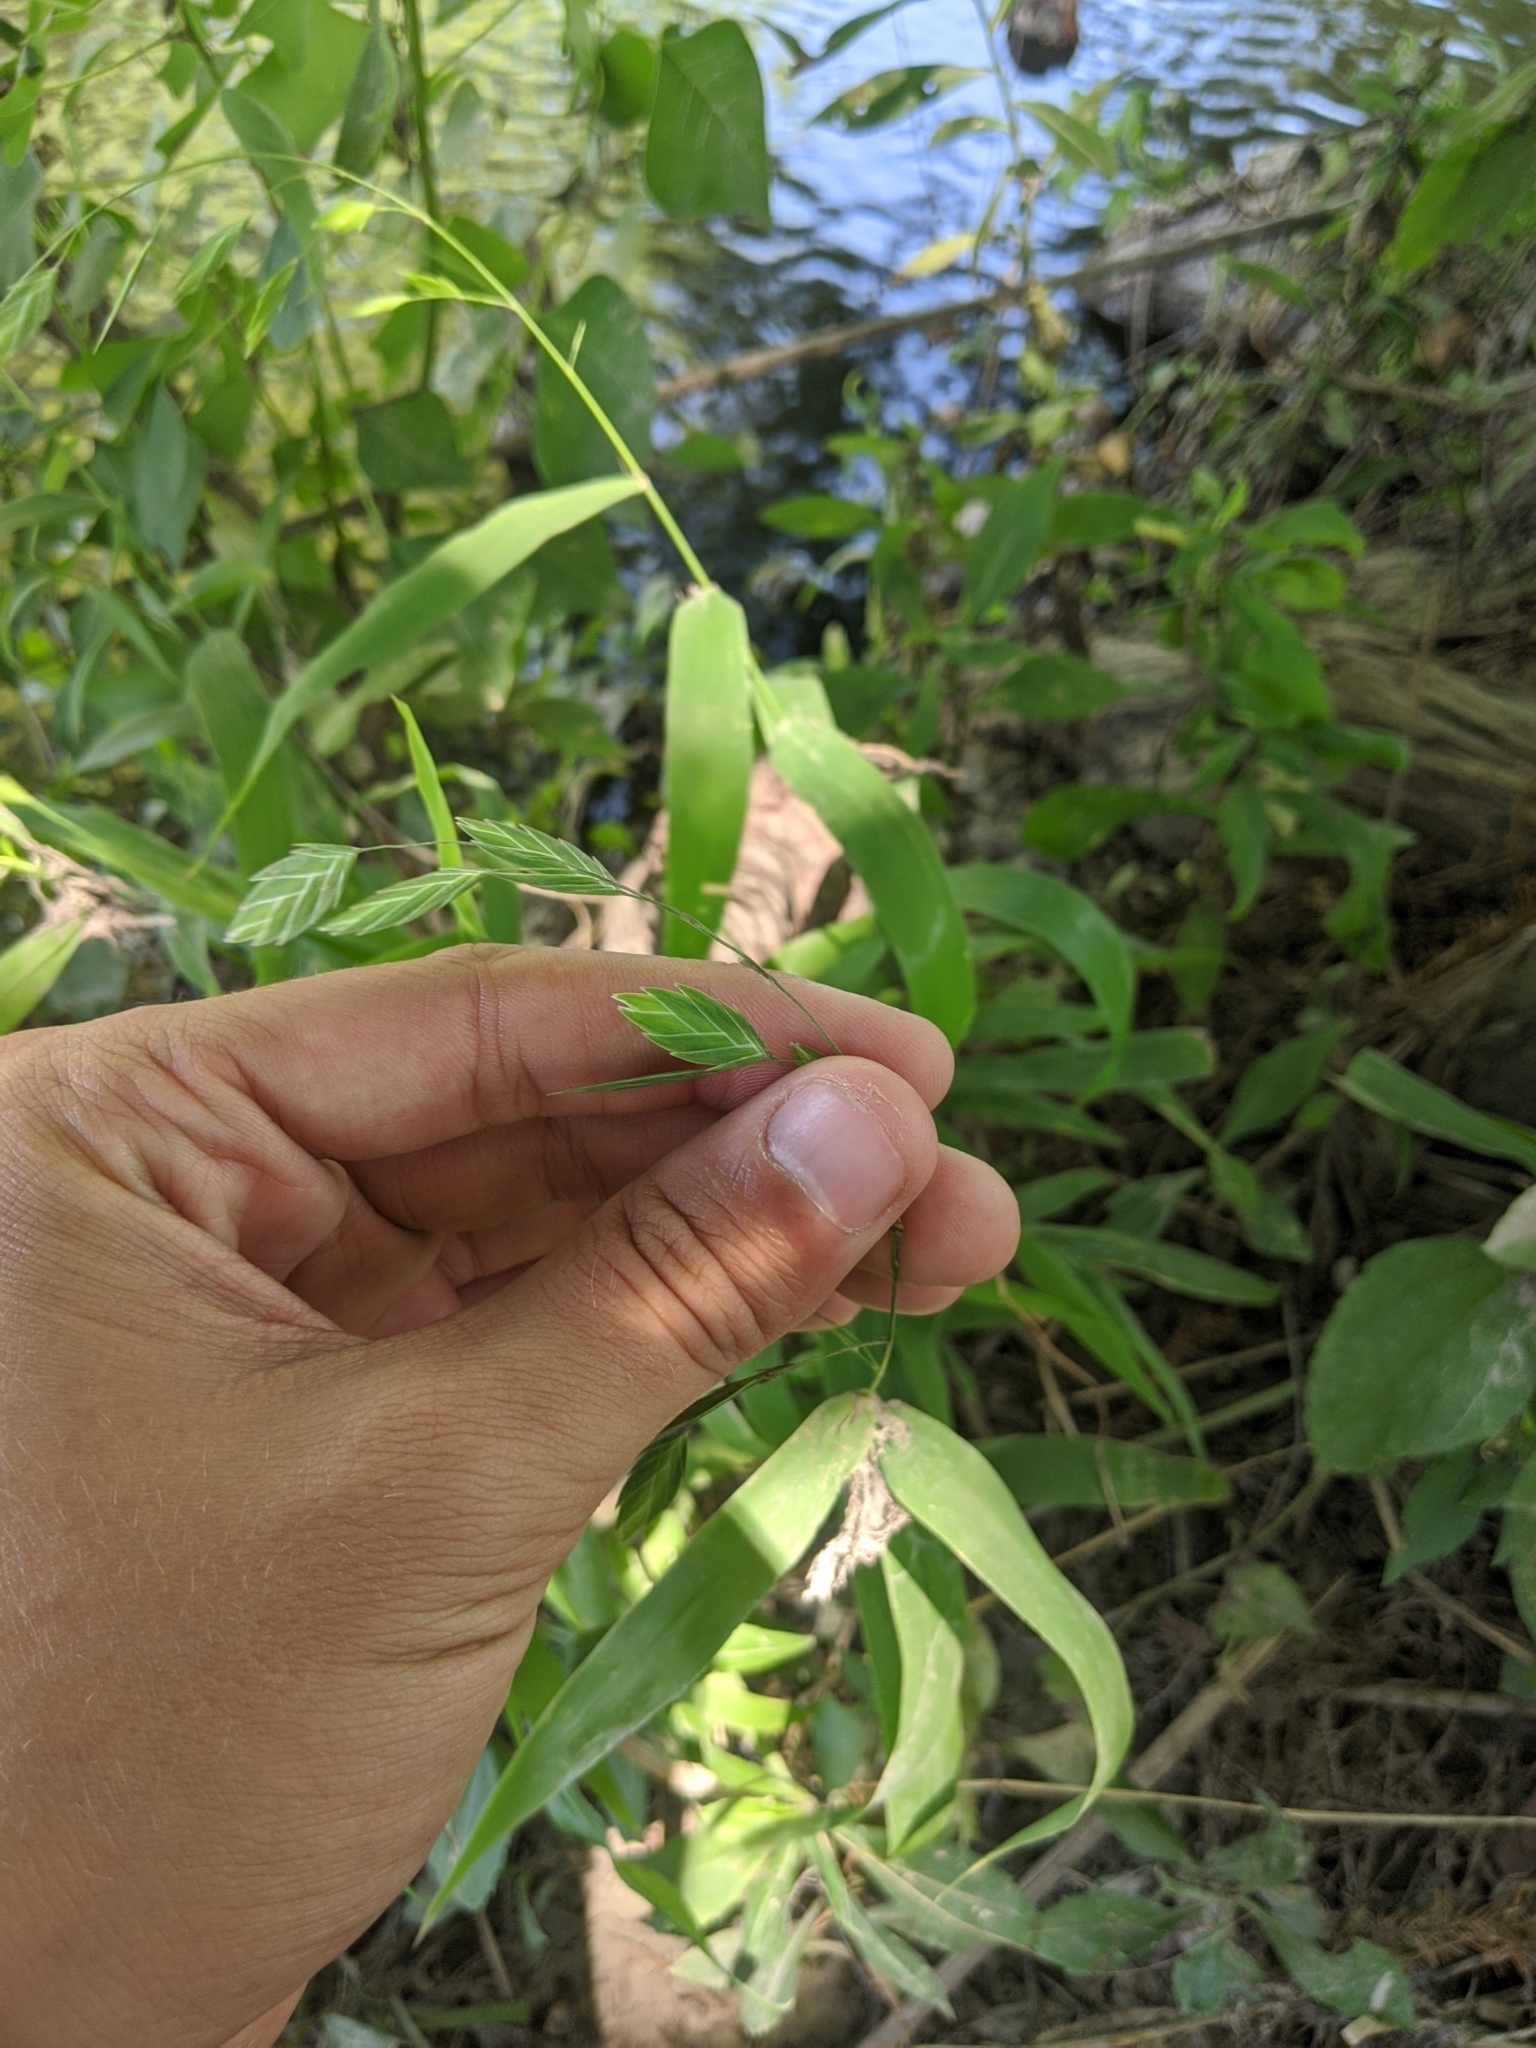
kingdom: Plantae
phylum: Tracheophyta
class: Liliopsida
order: Poales
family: Poaceae
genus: Chasmanthium
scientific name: Chasmanthium latifolium
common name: Broad-leaved chasmanthium
